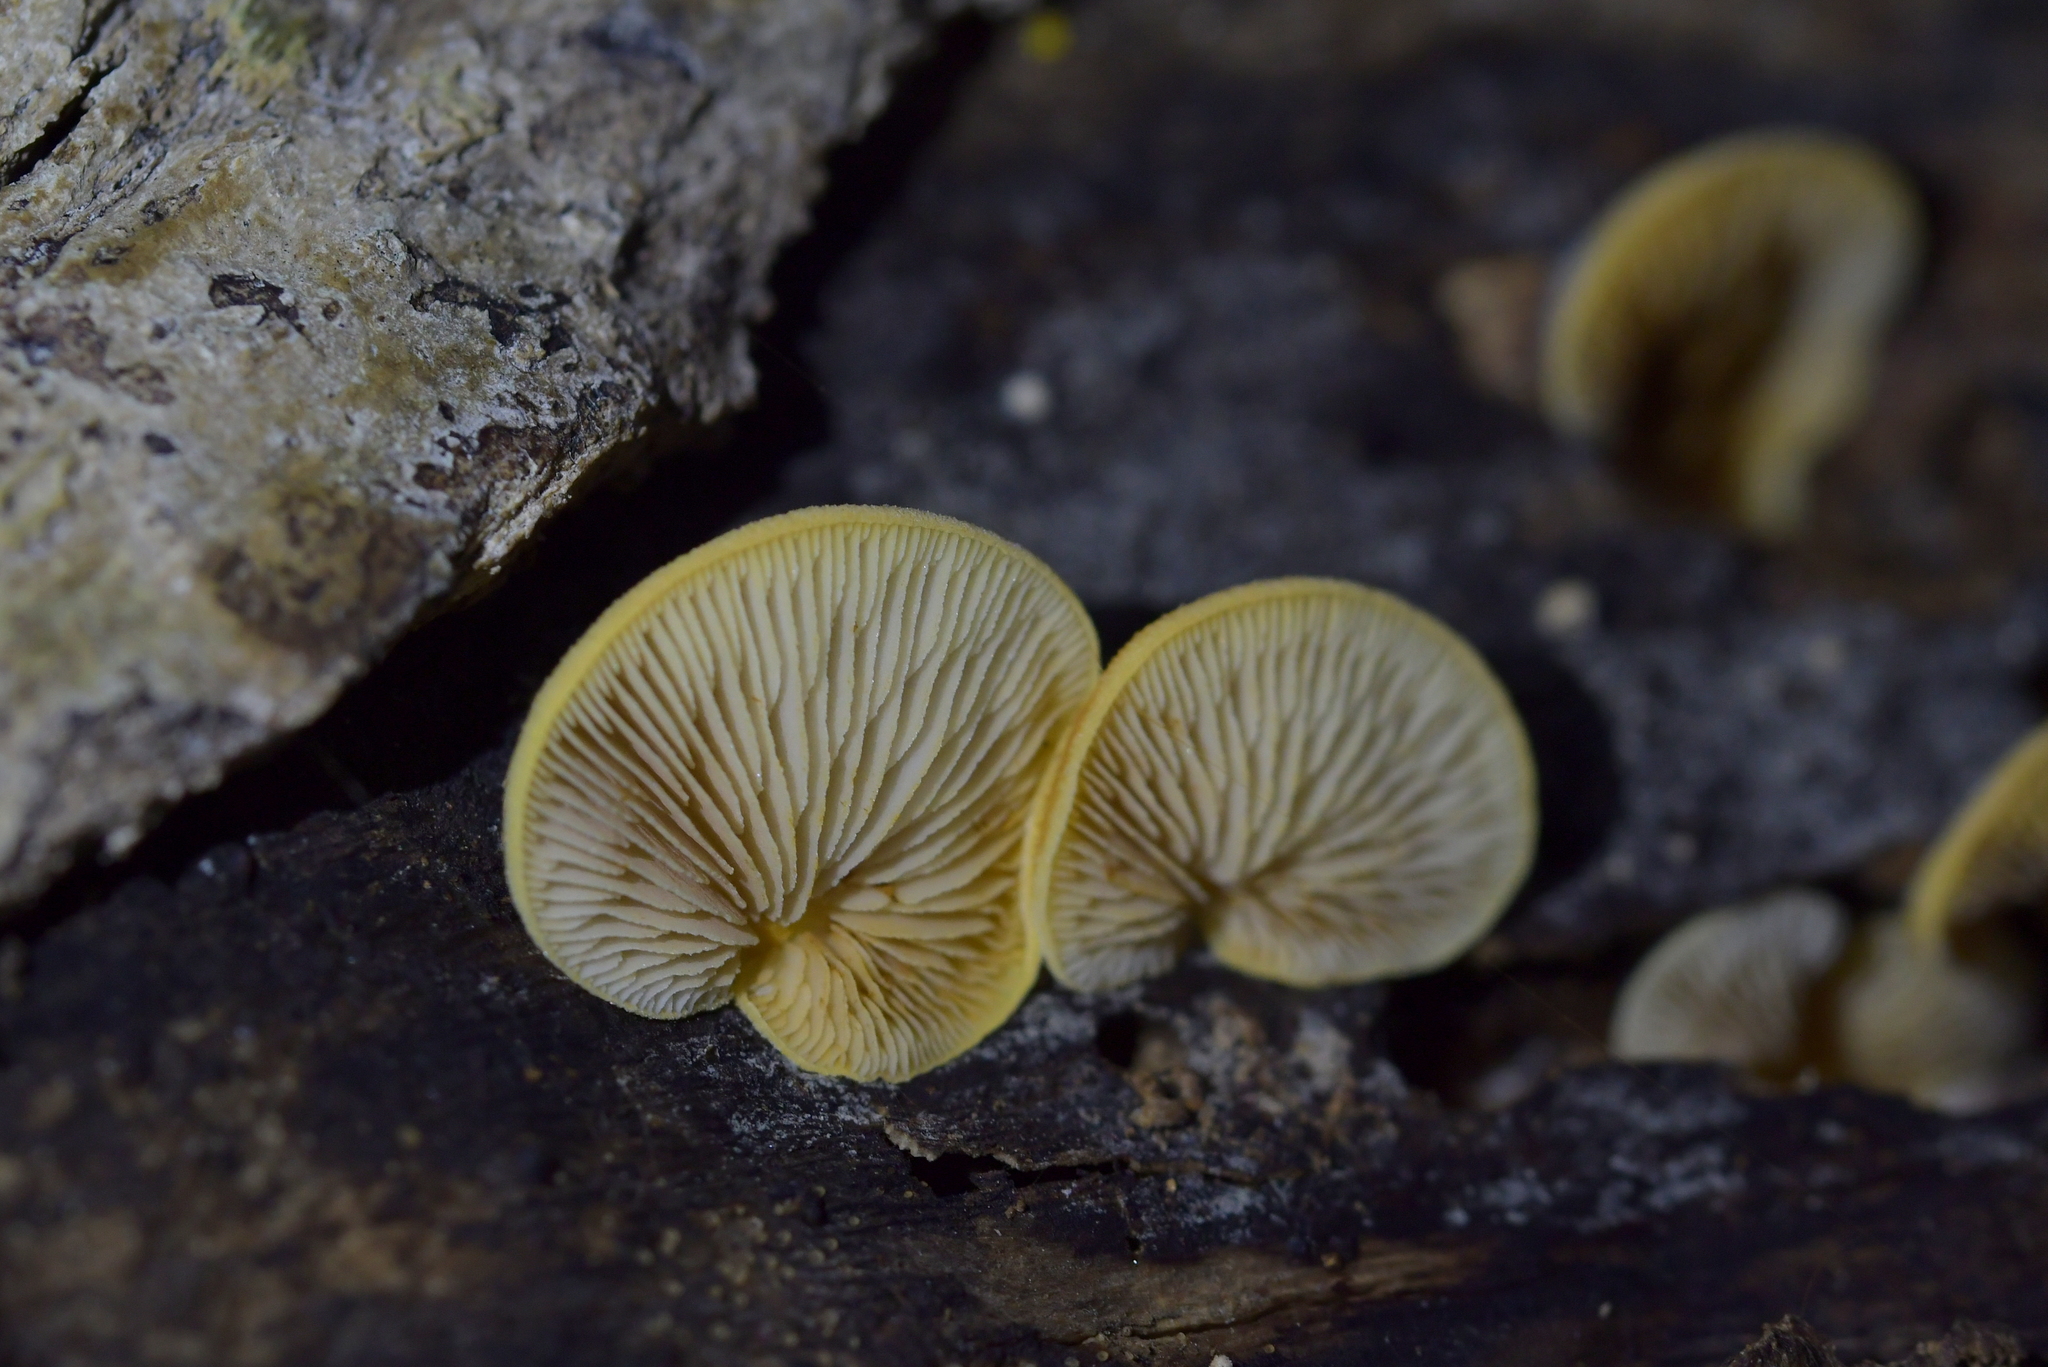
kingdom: Fungi
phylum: Basidiomycota
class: Agaricomycetes
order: Agaricales
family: Crepidotaceae
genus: Crepidotus
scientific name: Crepidotus praecipuus
